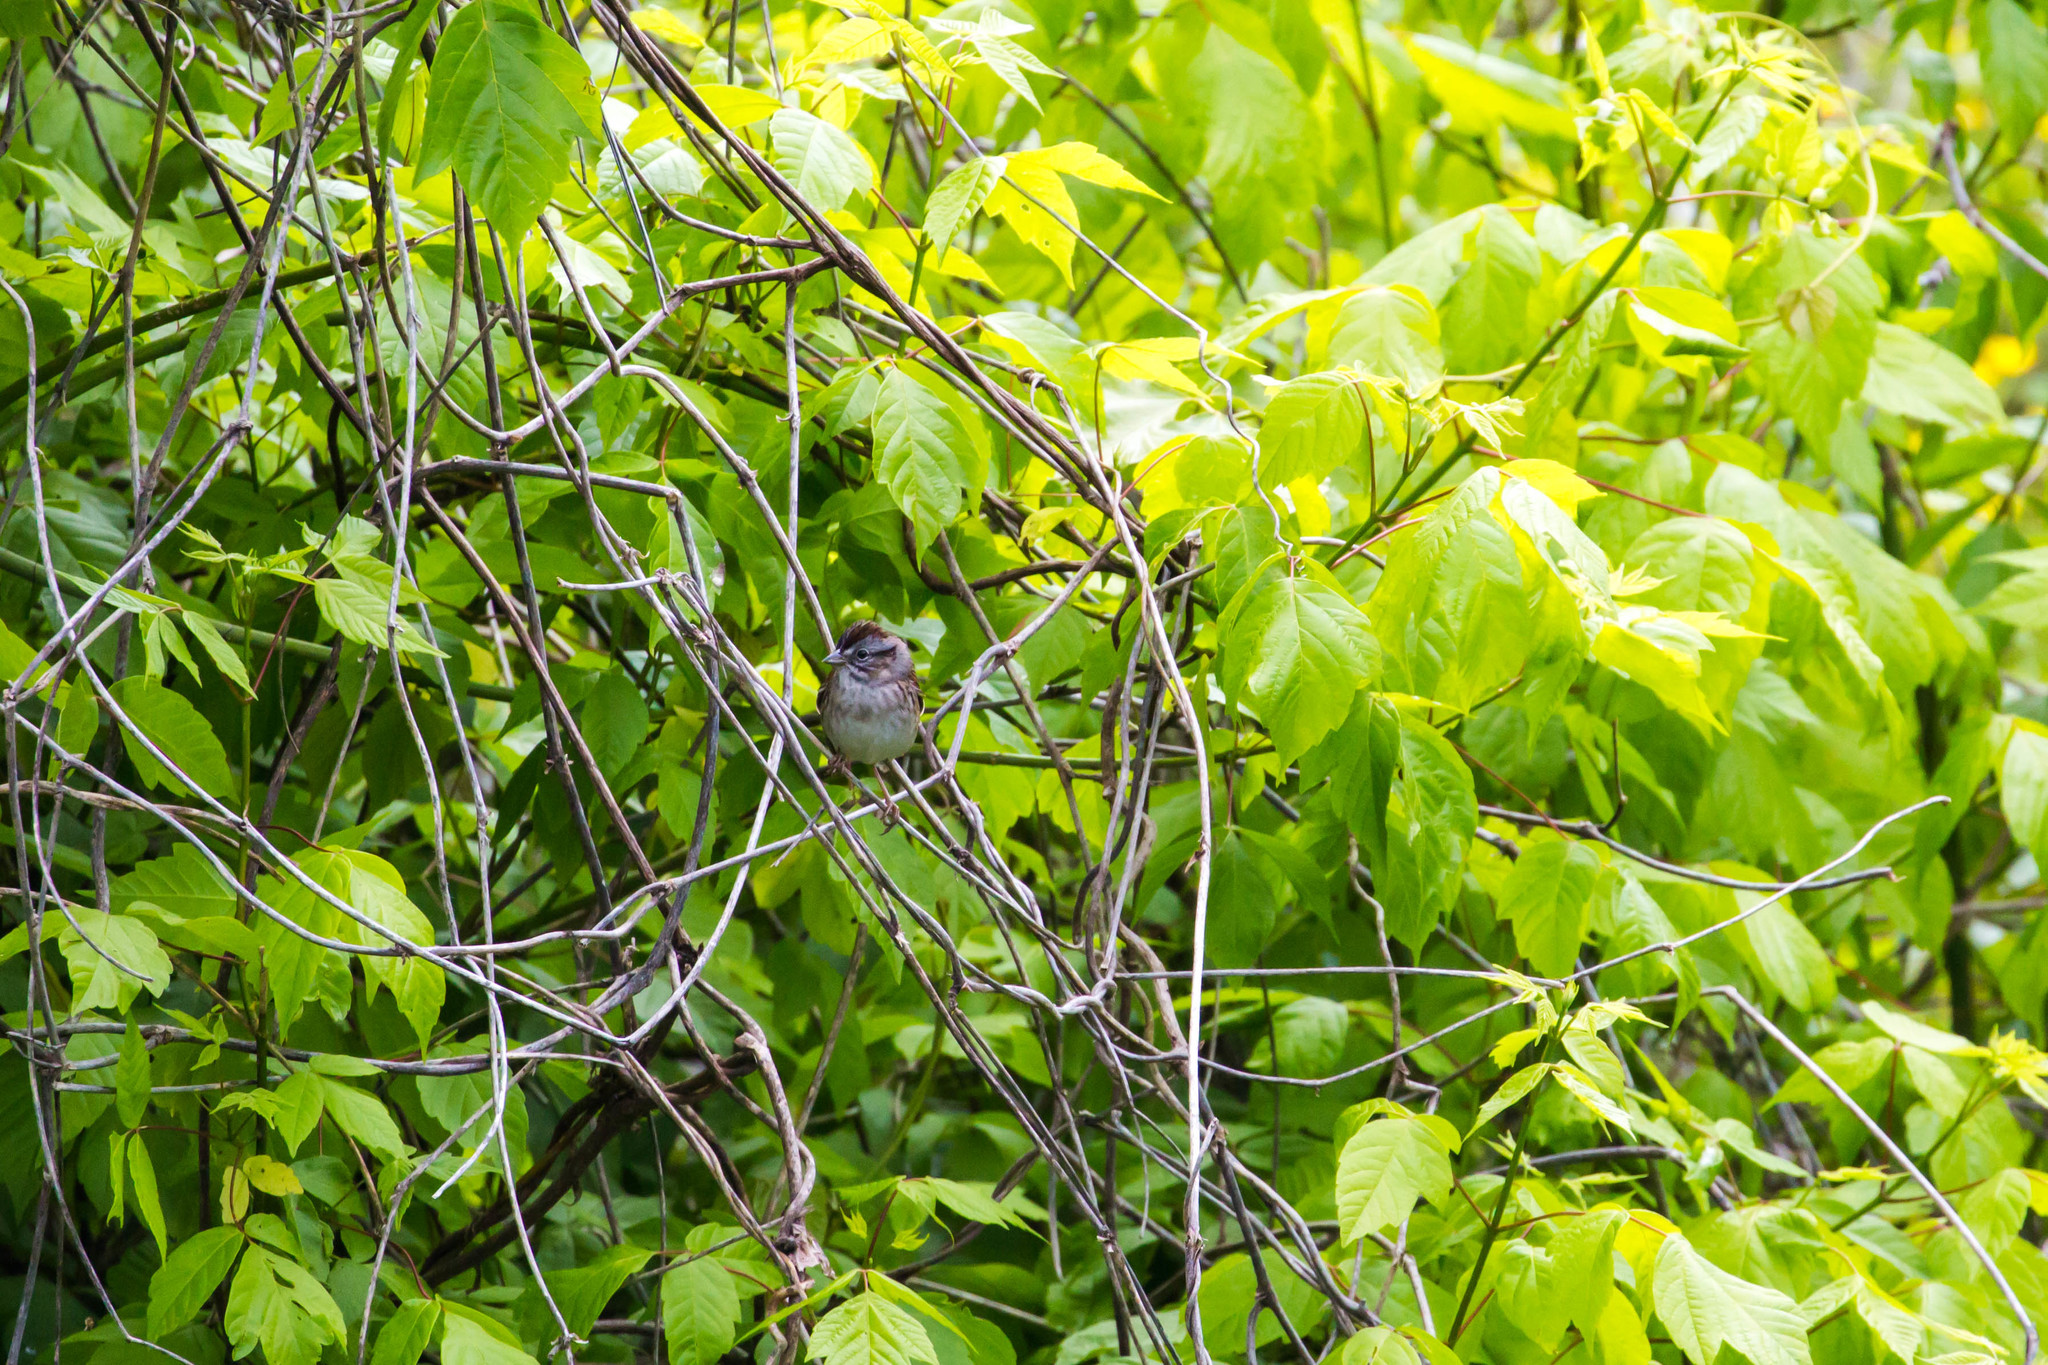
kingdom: Animalia
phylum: Chordata
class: Aves
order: Passeriformes
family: Passerellidae
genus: Melospiza
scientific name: Melospiza georgiana
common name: Swamp sparrow
